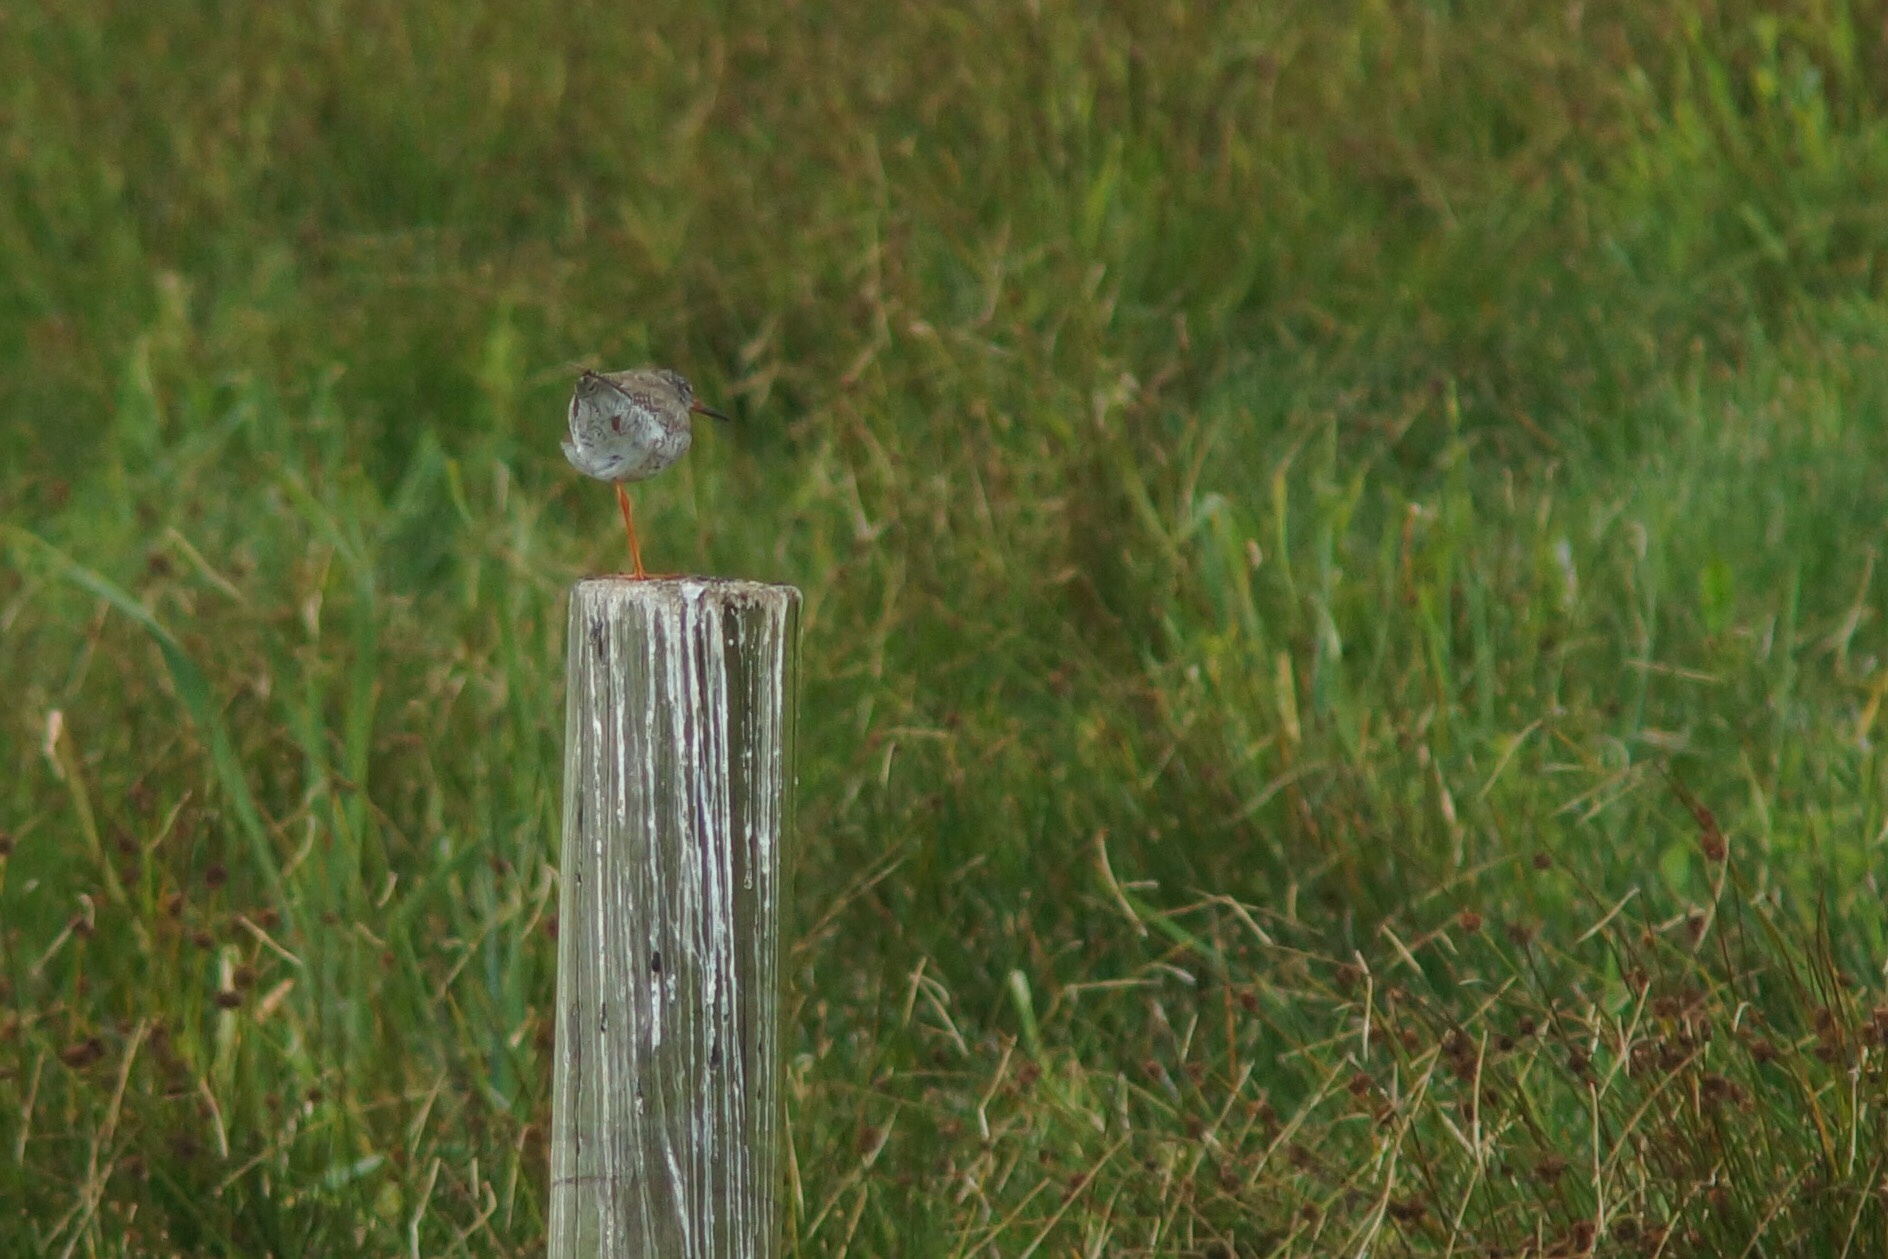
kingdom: Animalia
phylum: Chordata
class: Aves
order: Charadriiformes
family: Scolopacidae
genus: Tringa
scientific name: Tringa totanus
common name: Common redshank
